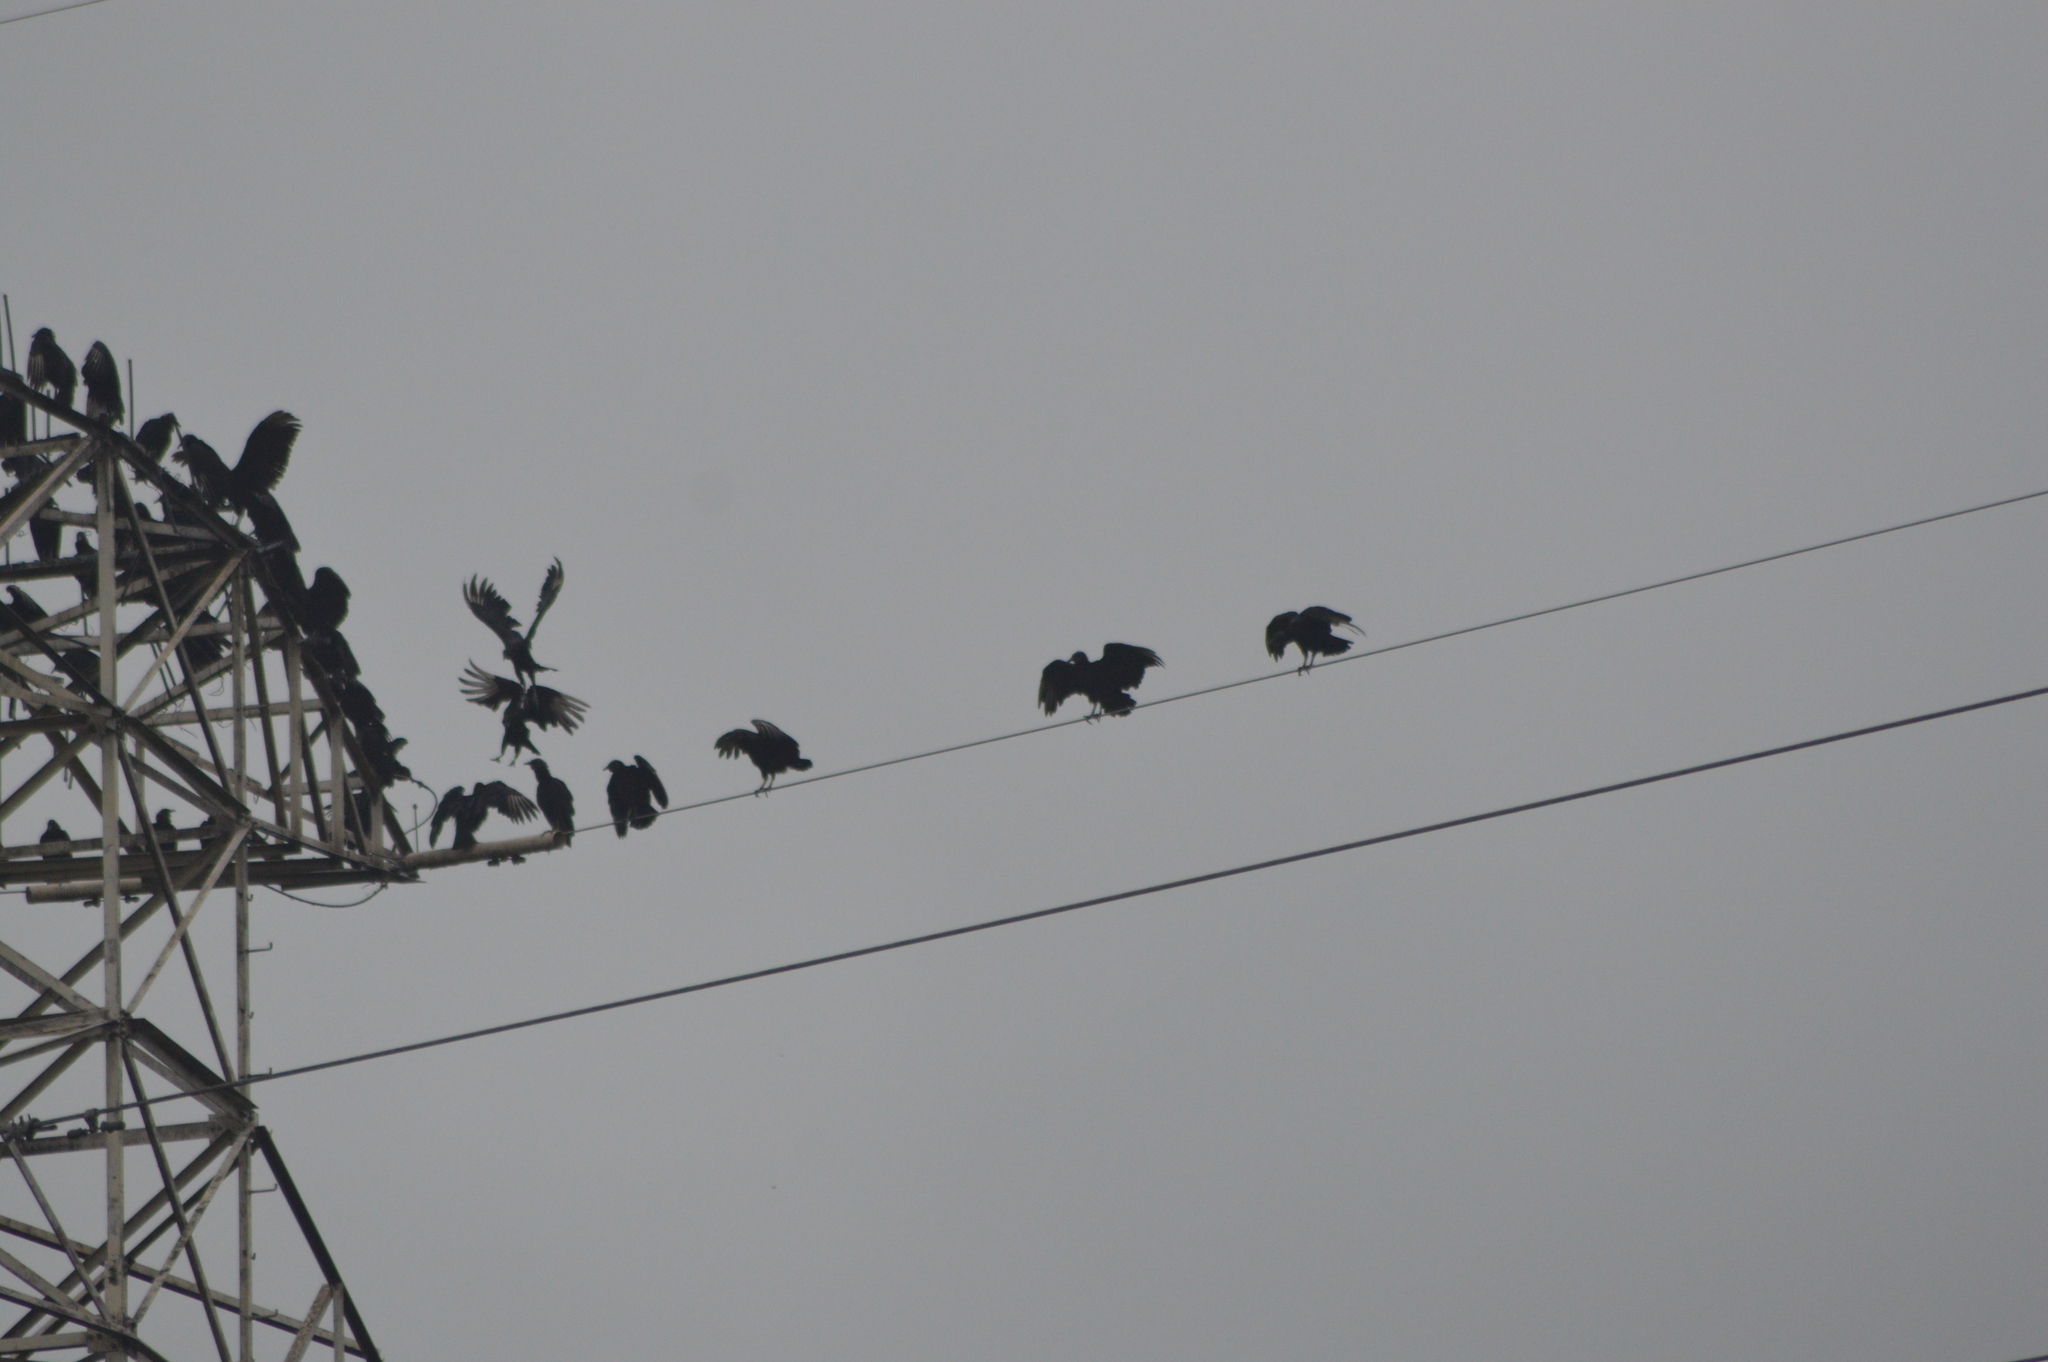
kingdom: Animalia
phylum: Chordata
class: Aves
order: Accipitriformes
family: Cathartidae
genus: Coragyps
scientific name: Coragyps atratus
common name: Black vulture
